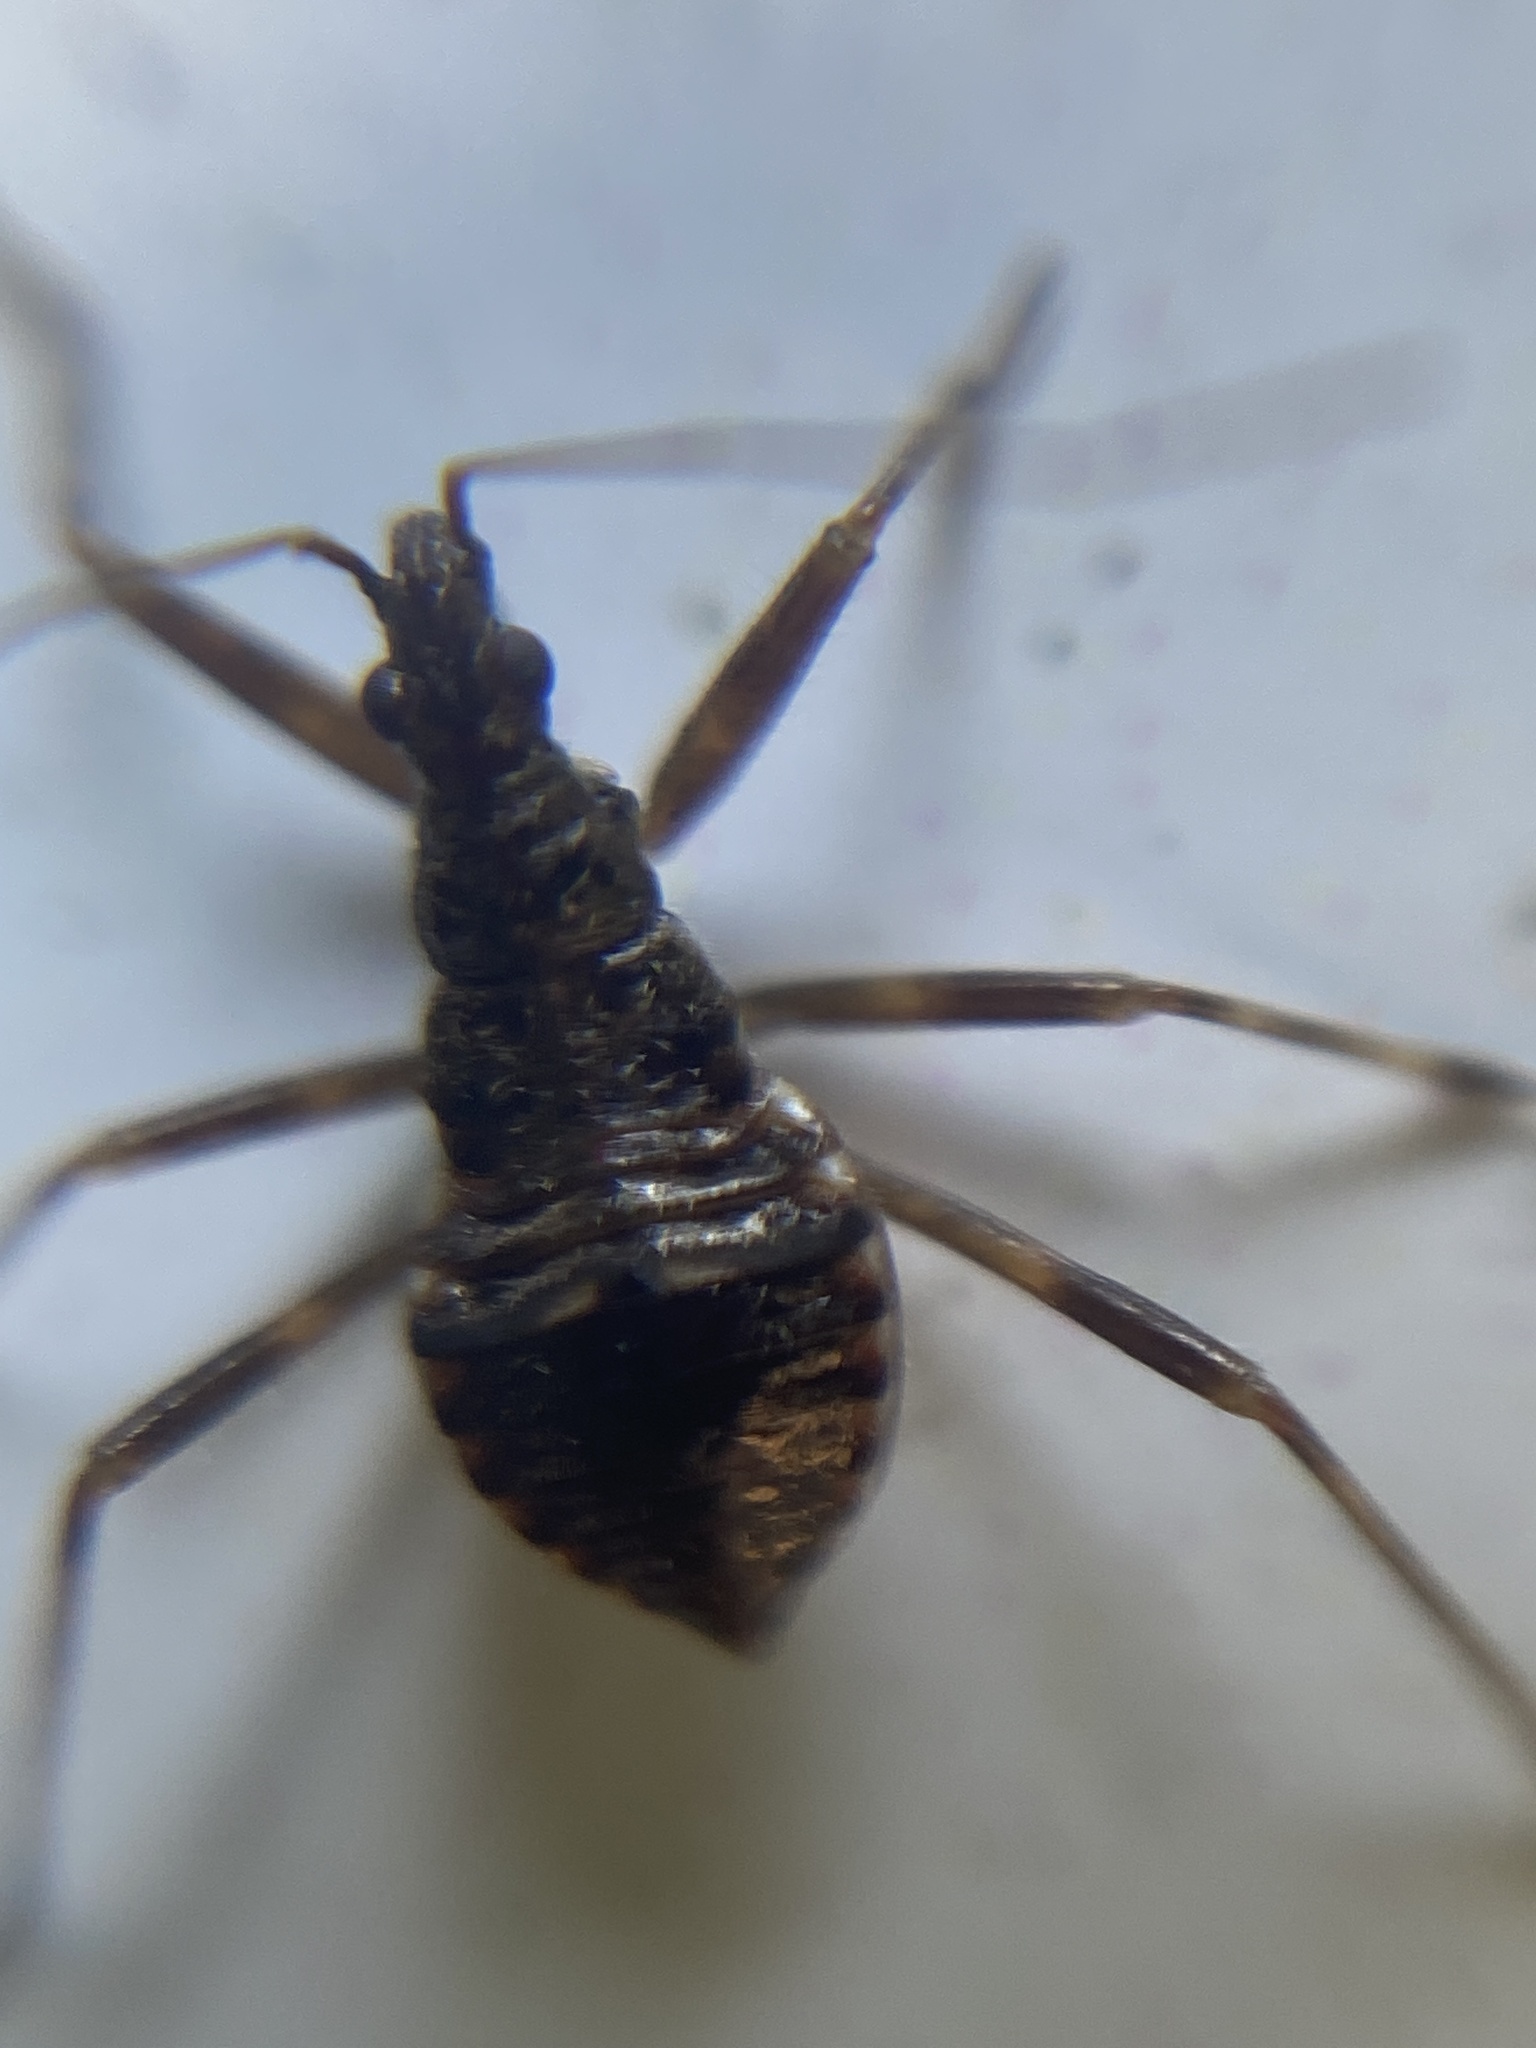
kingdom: Animalia
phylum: Arthropoda
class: Insecta
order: Hemiptera
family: Nabidae
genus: Himacerus
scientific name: Himacerus apterus
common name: Tree damsel bug
